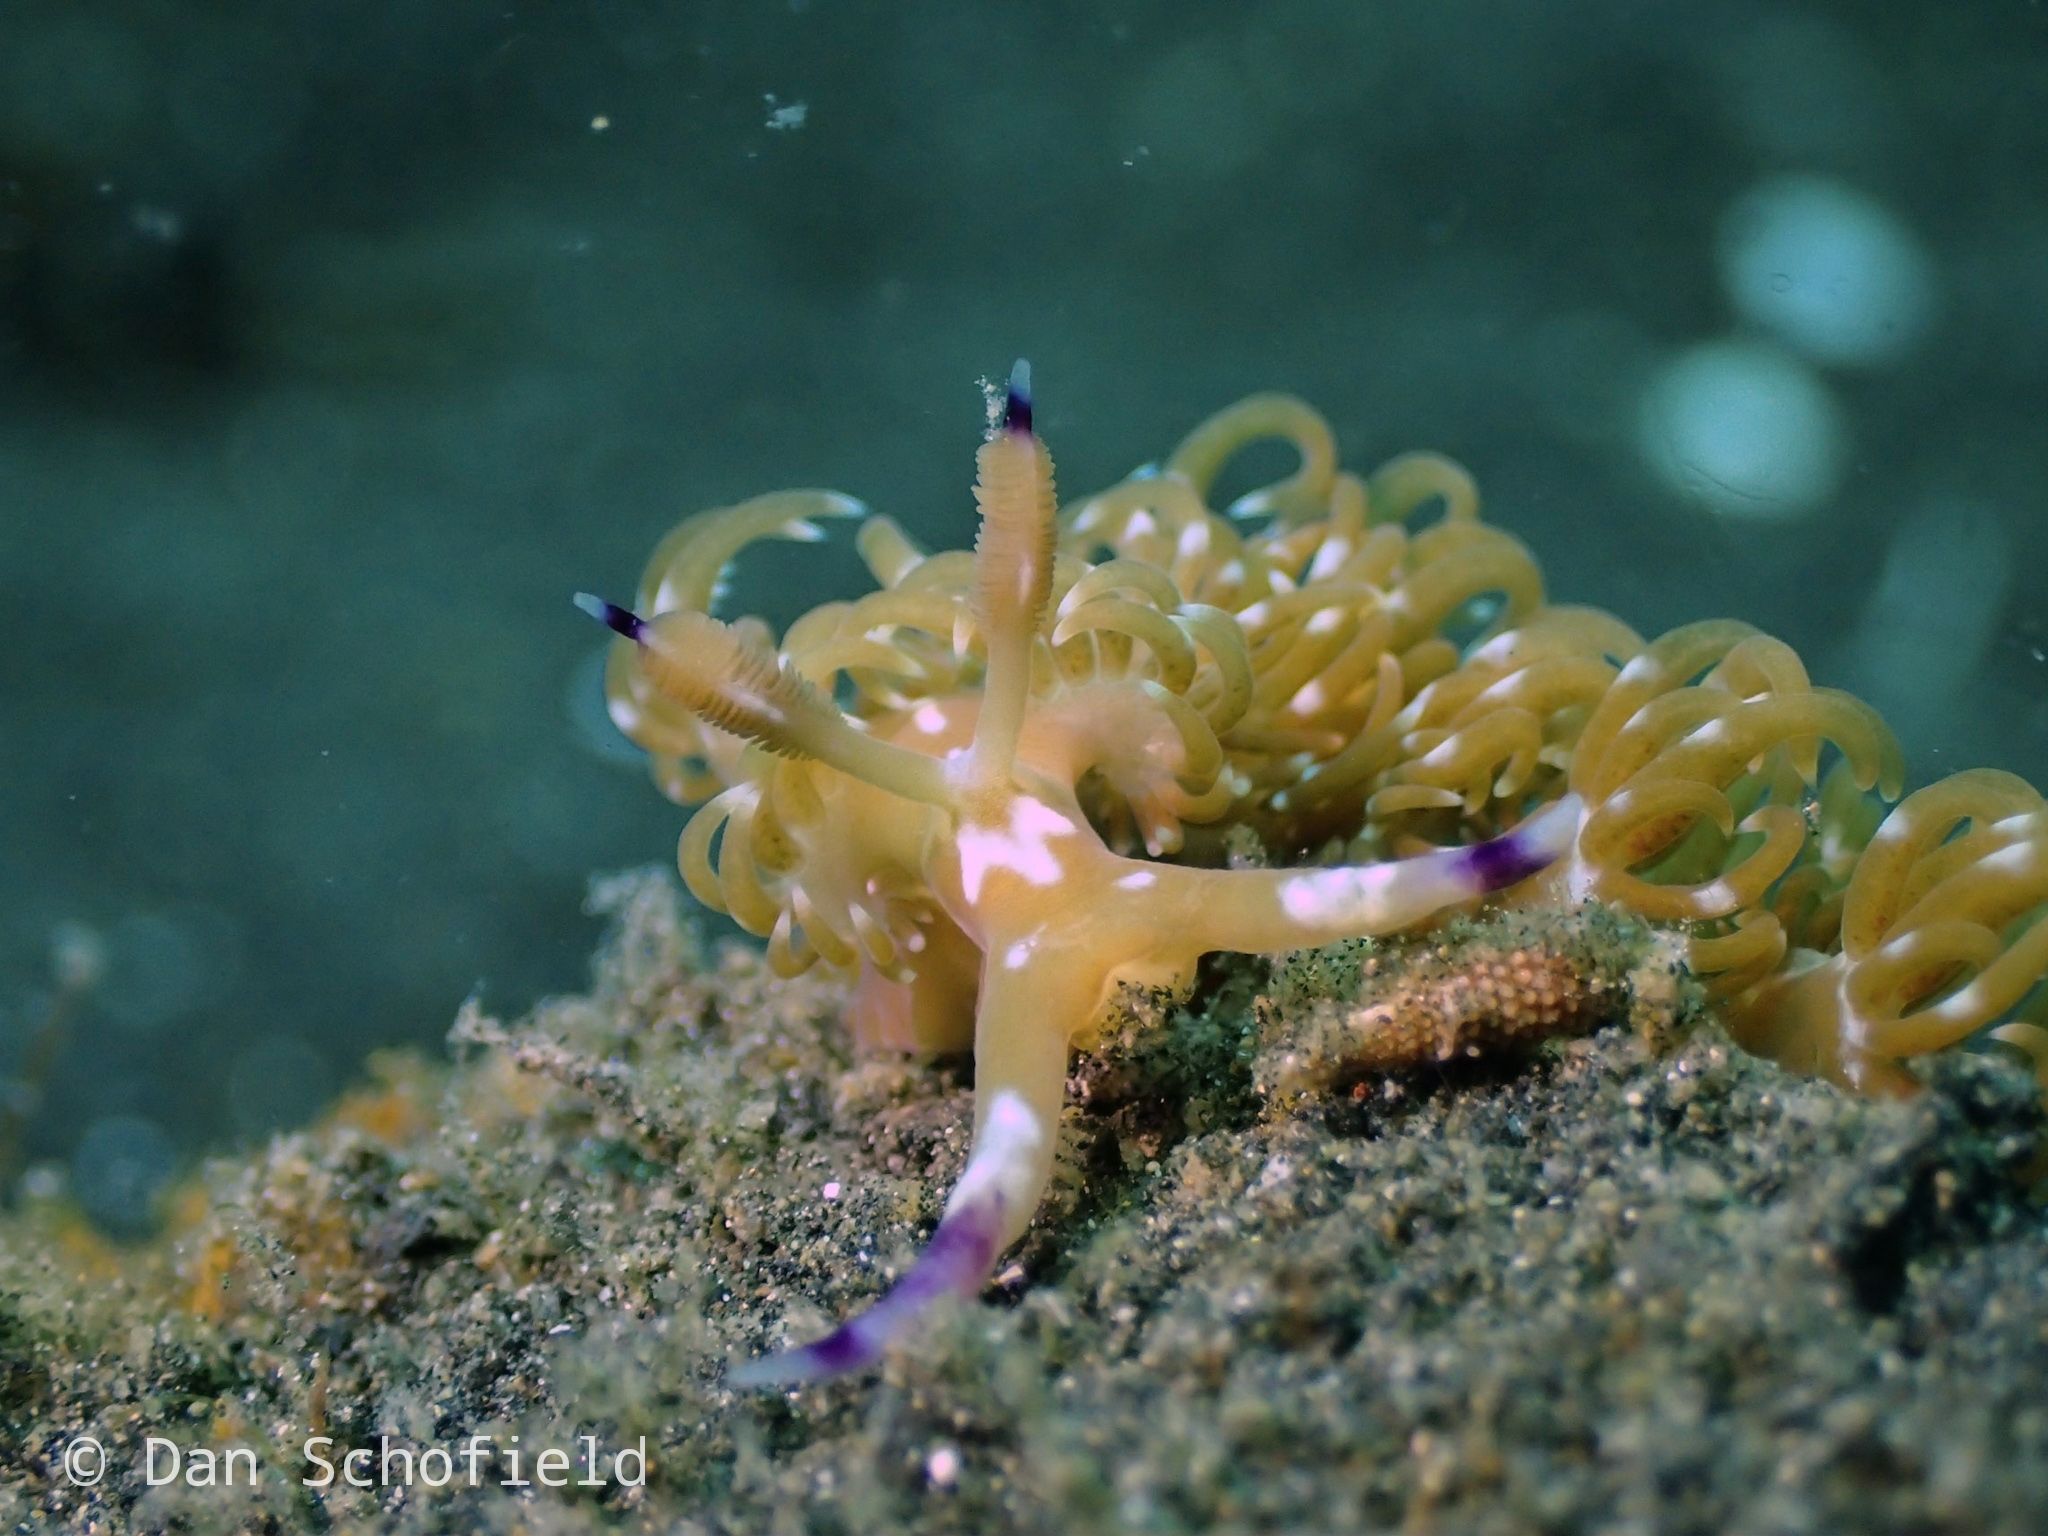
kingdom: Animalia
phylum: Mollusca
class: Gastropoda
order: Nudibranchia
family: Facelinidae
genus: Pteraeolidia
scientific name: Pteraeolidia semperi
